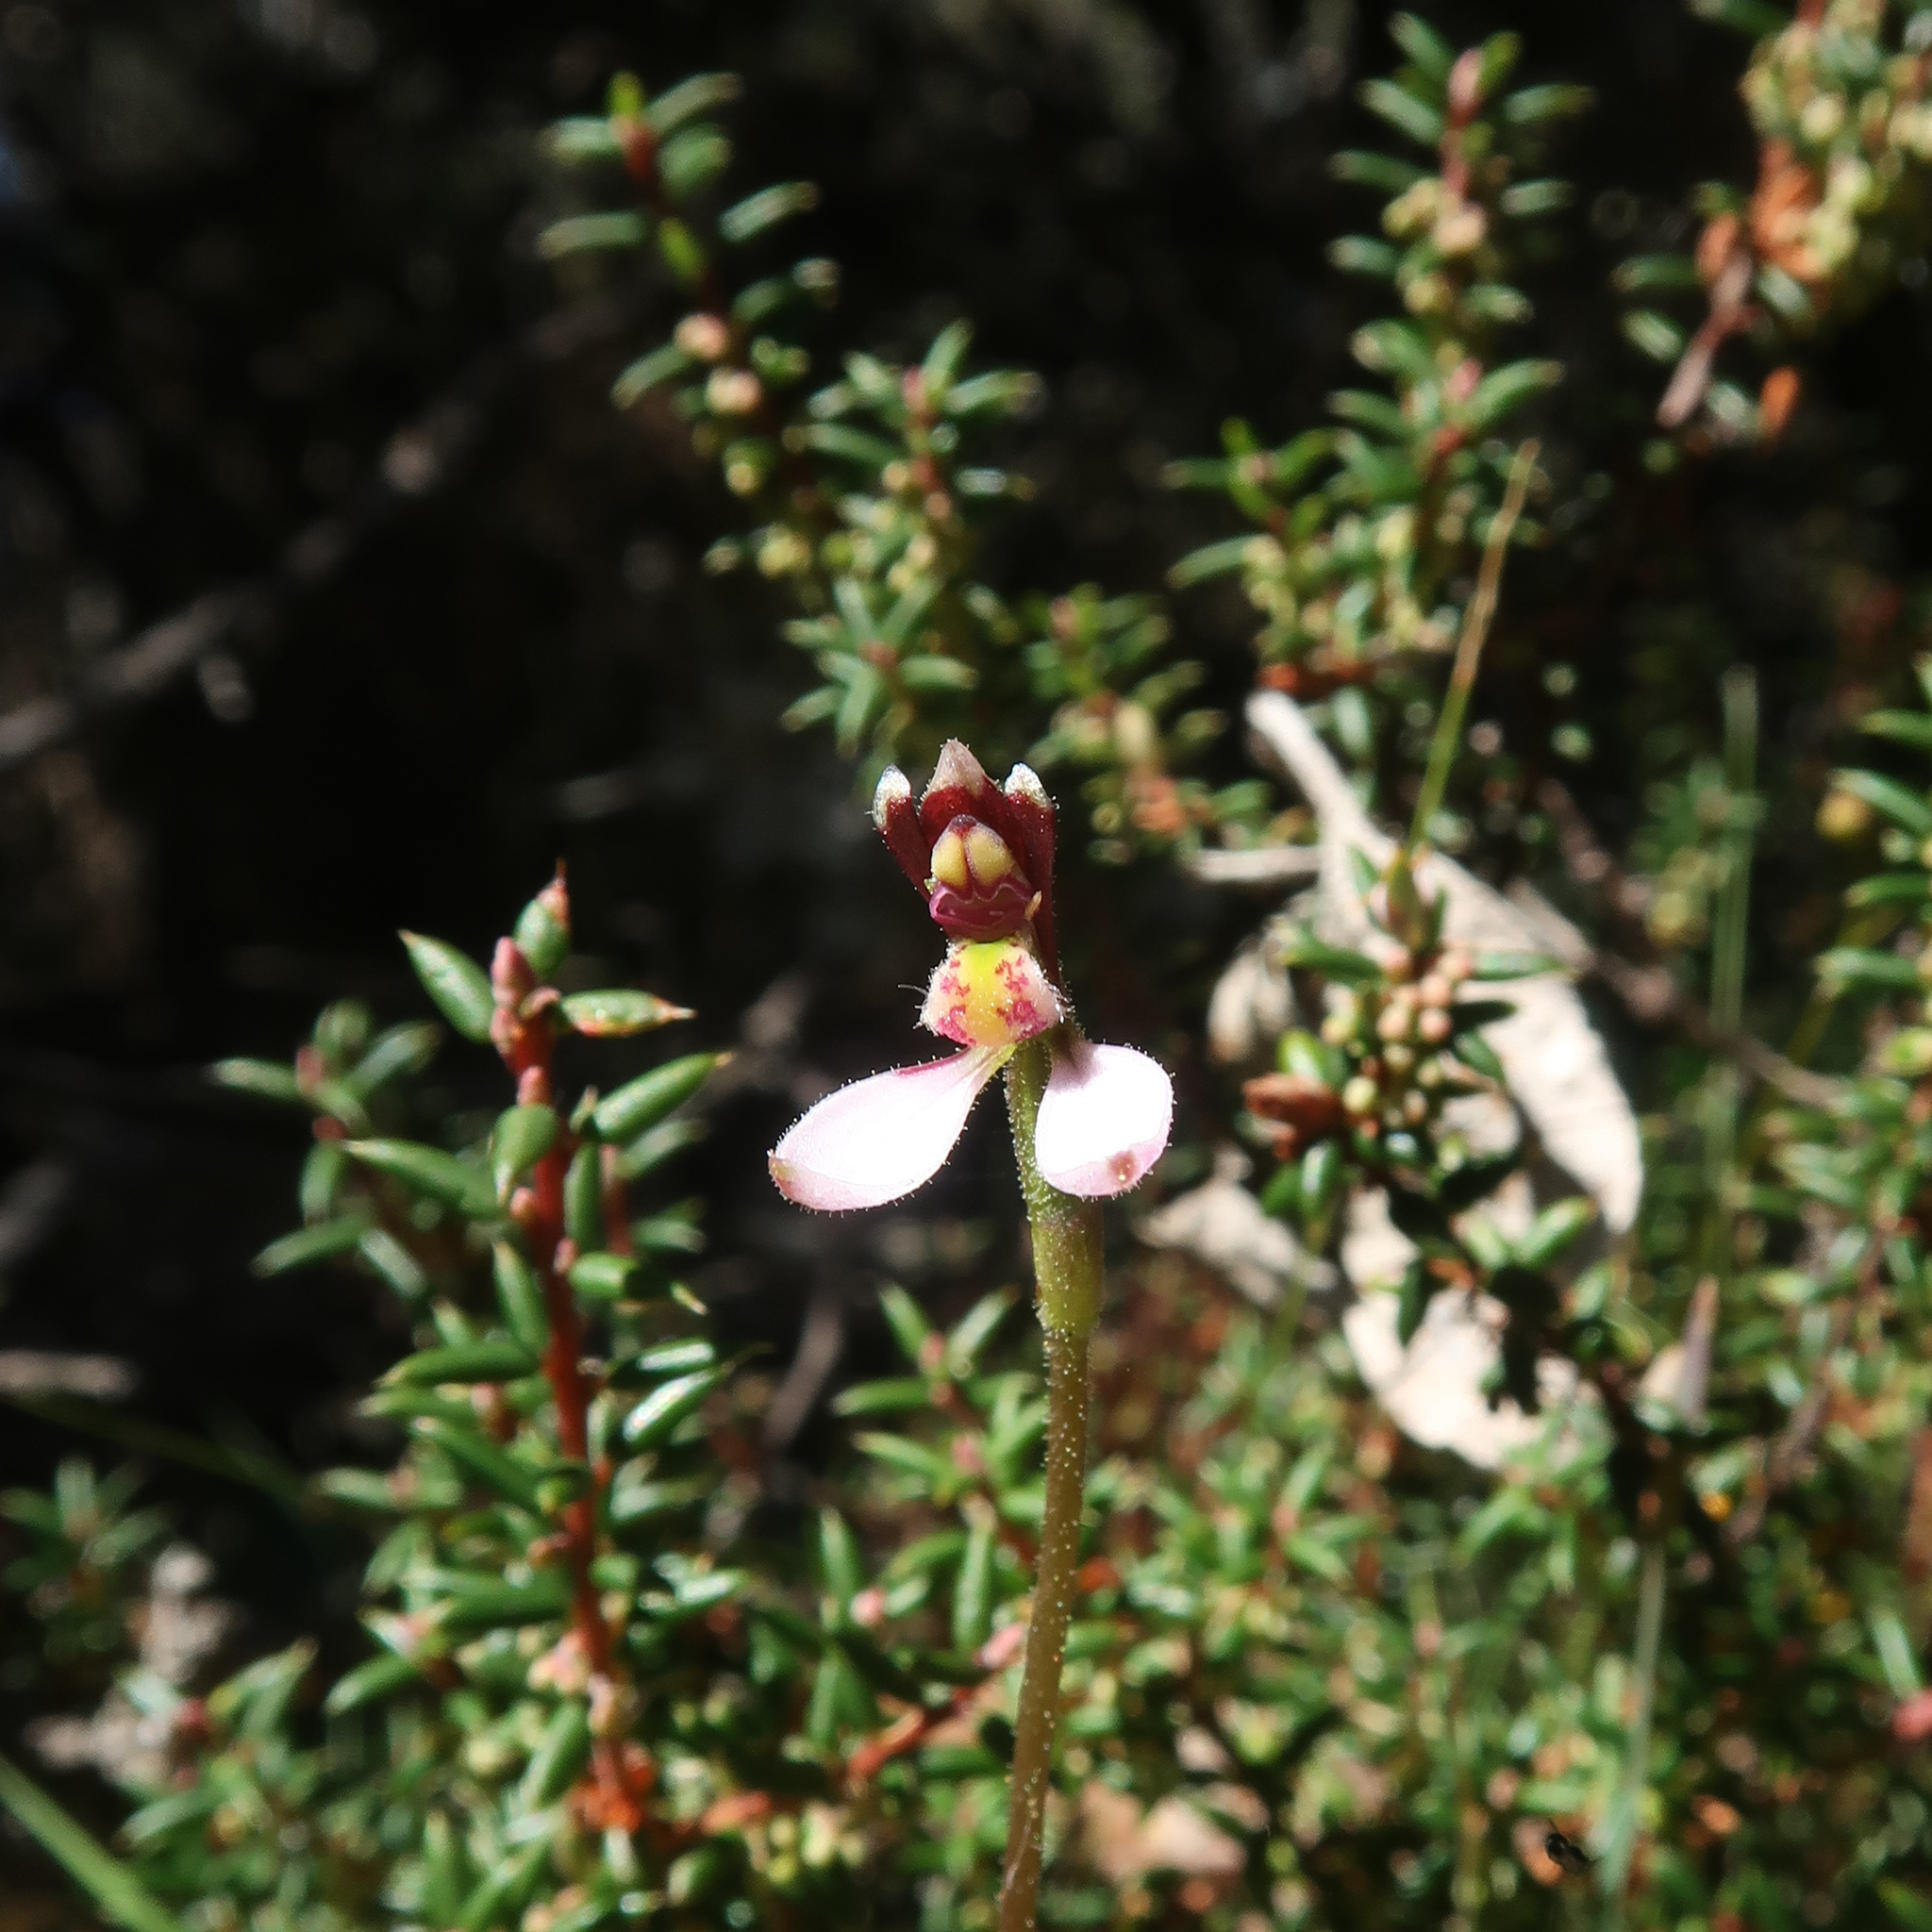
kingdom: Plantae
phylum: Tracheophyta
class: Liliopsida
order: Asparagales
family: Orchidaceae
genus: Eriochilus
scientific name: Eriochilus cucullatus
